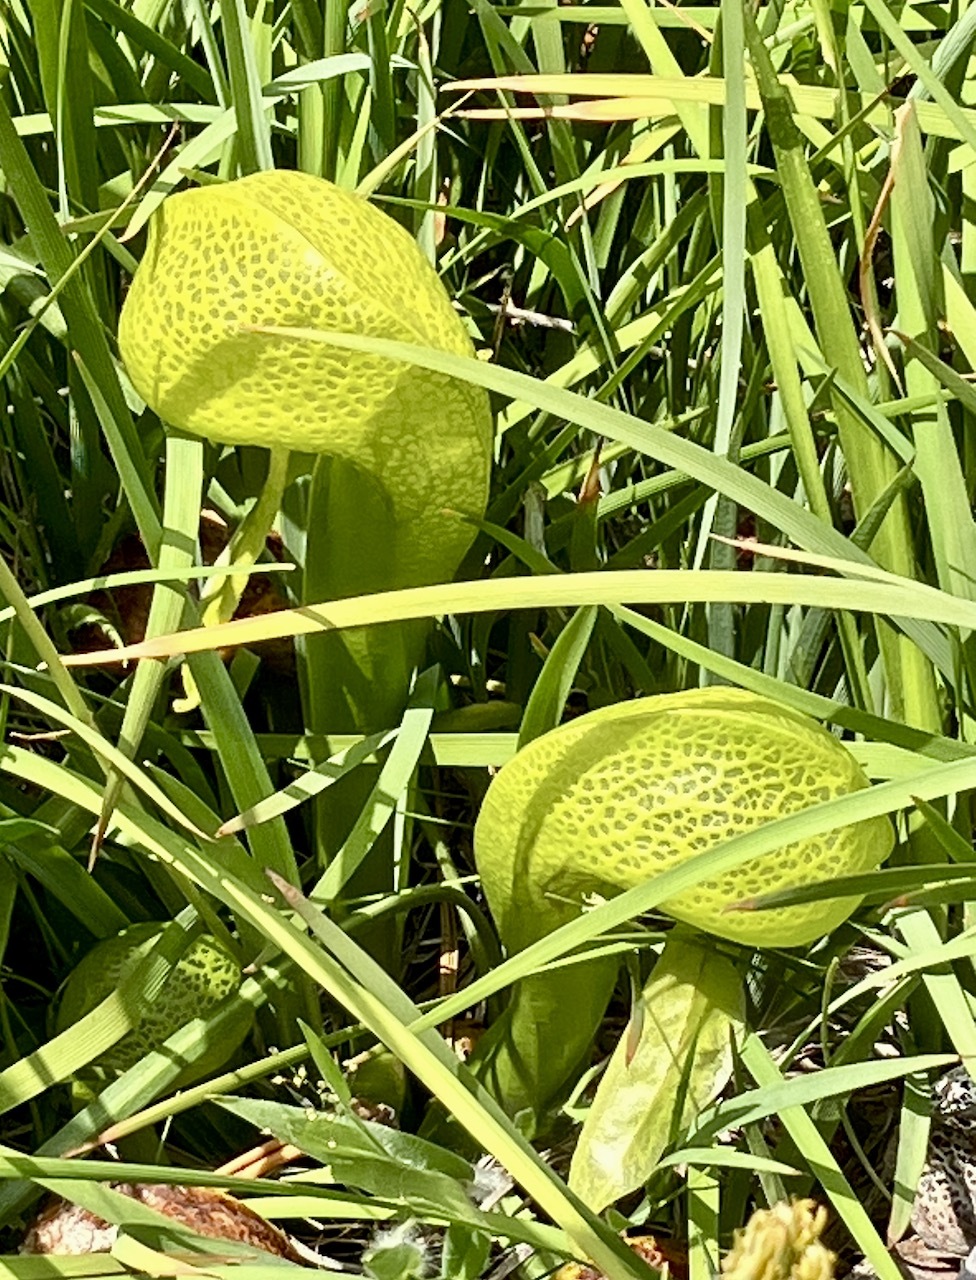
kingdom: Plantae
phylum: Tracheophyta
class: Magnoliopsida
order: Ericales
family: Sarraceniaceae
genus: Darlingtonia
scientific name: Darlingtonia californica
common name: California pitcher plant
